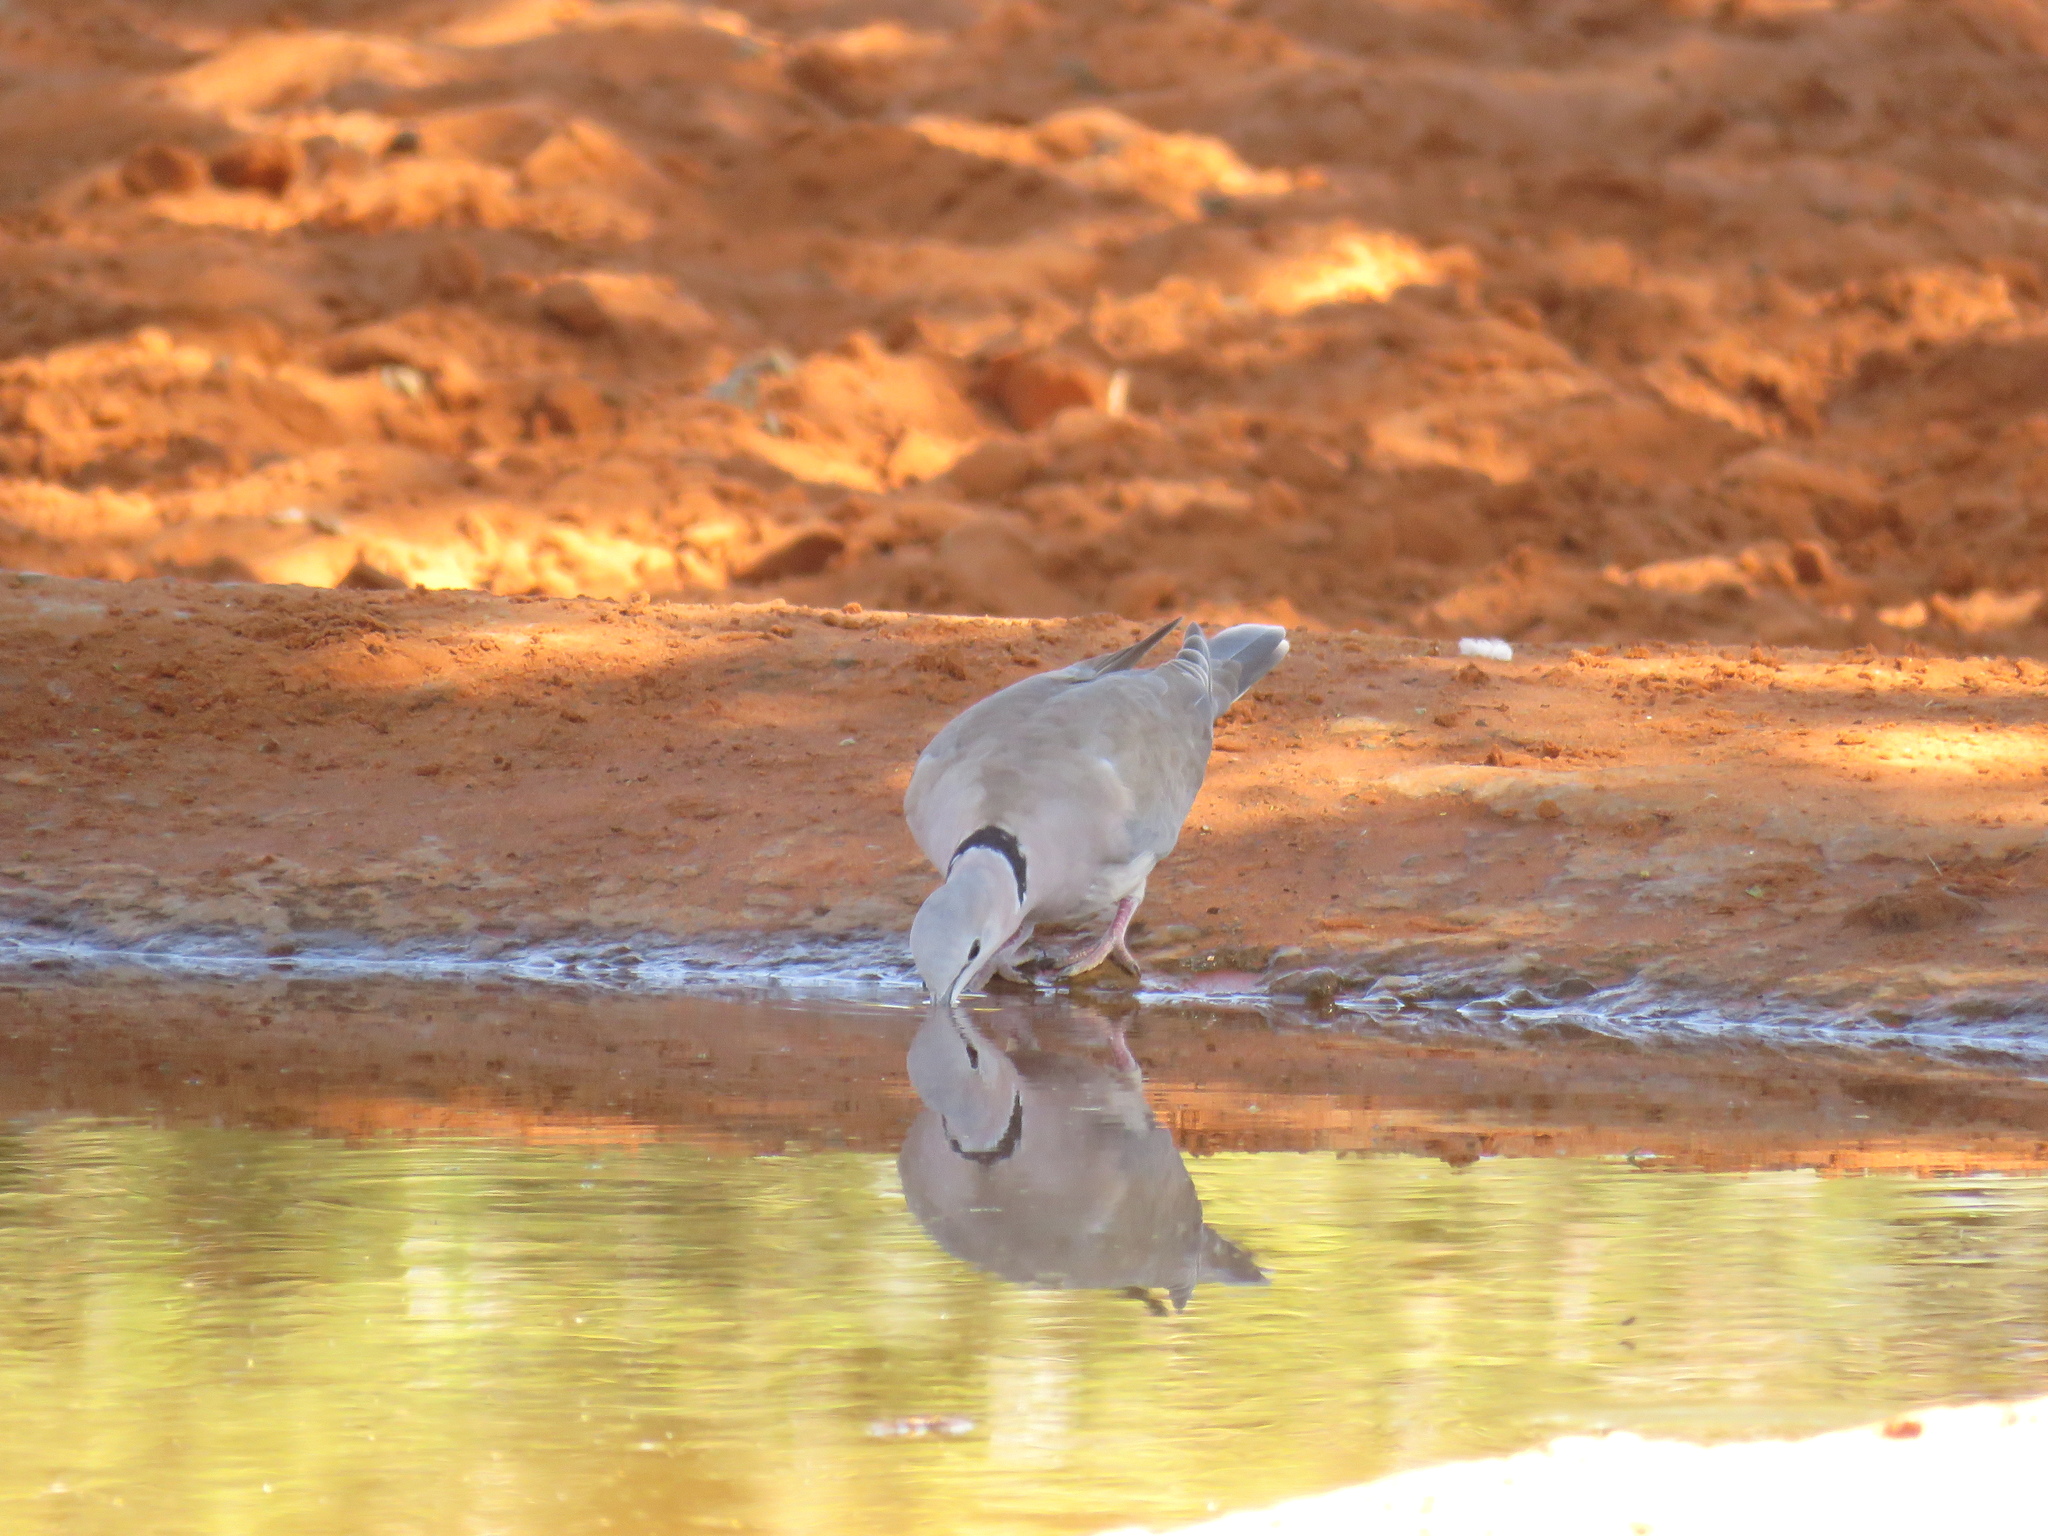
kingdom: Animalia
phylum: Chordata
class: Aves
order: Columbiformes
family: Columbidae
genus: Streptopelia
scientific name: Streptopelia capicola
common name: Ring-necked dove
